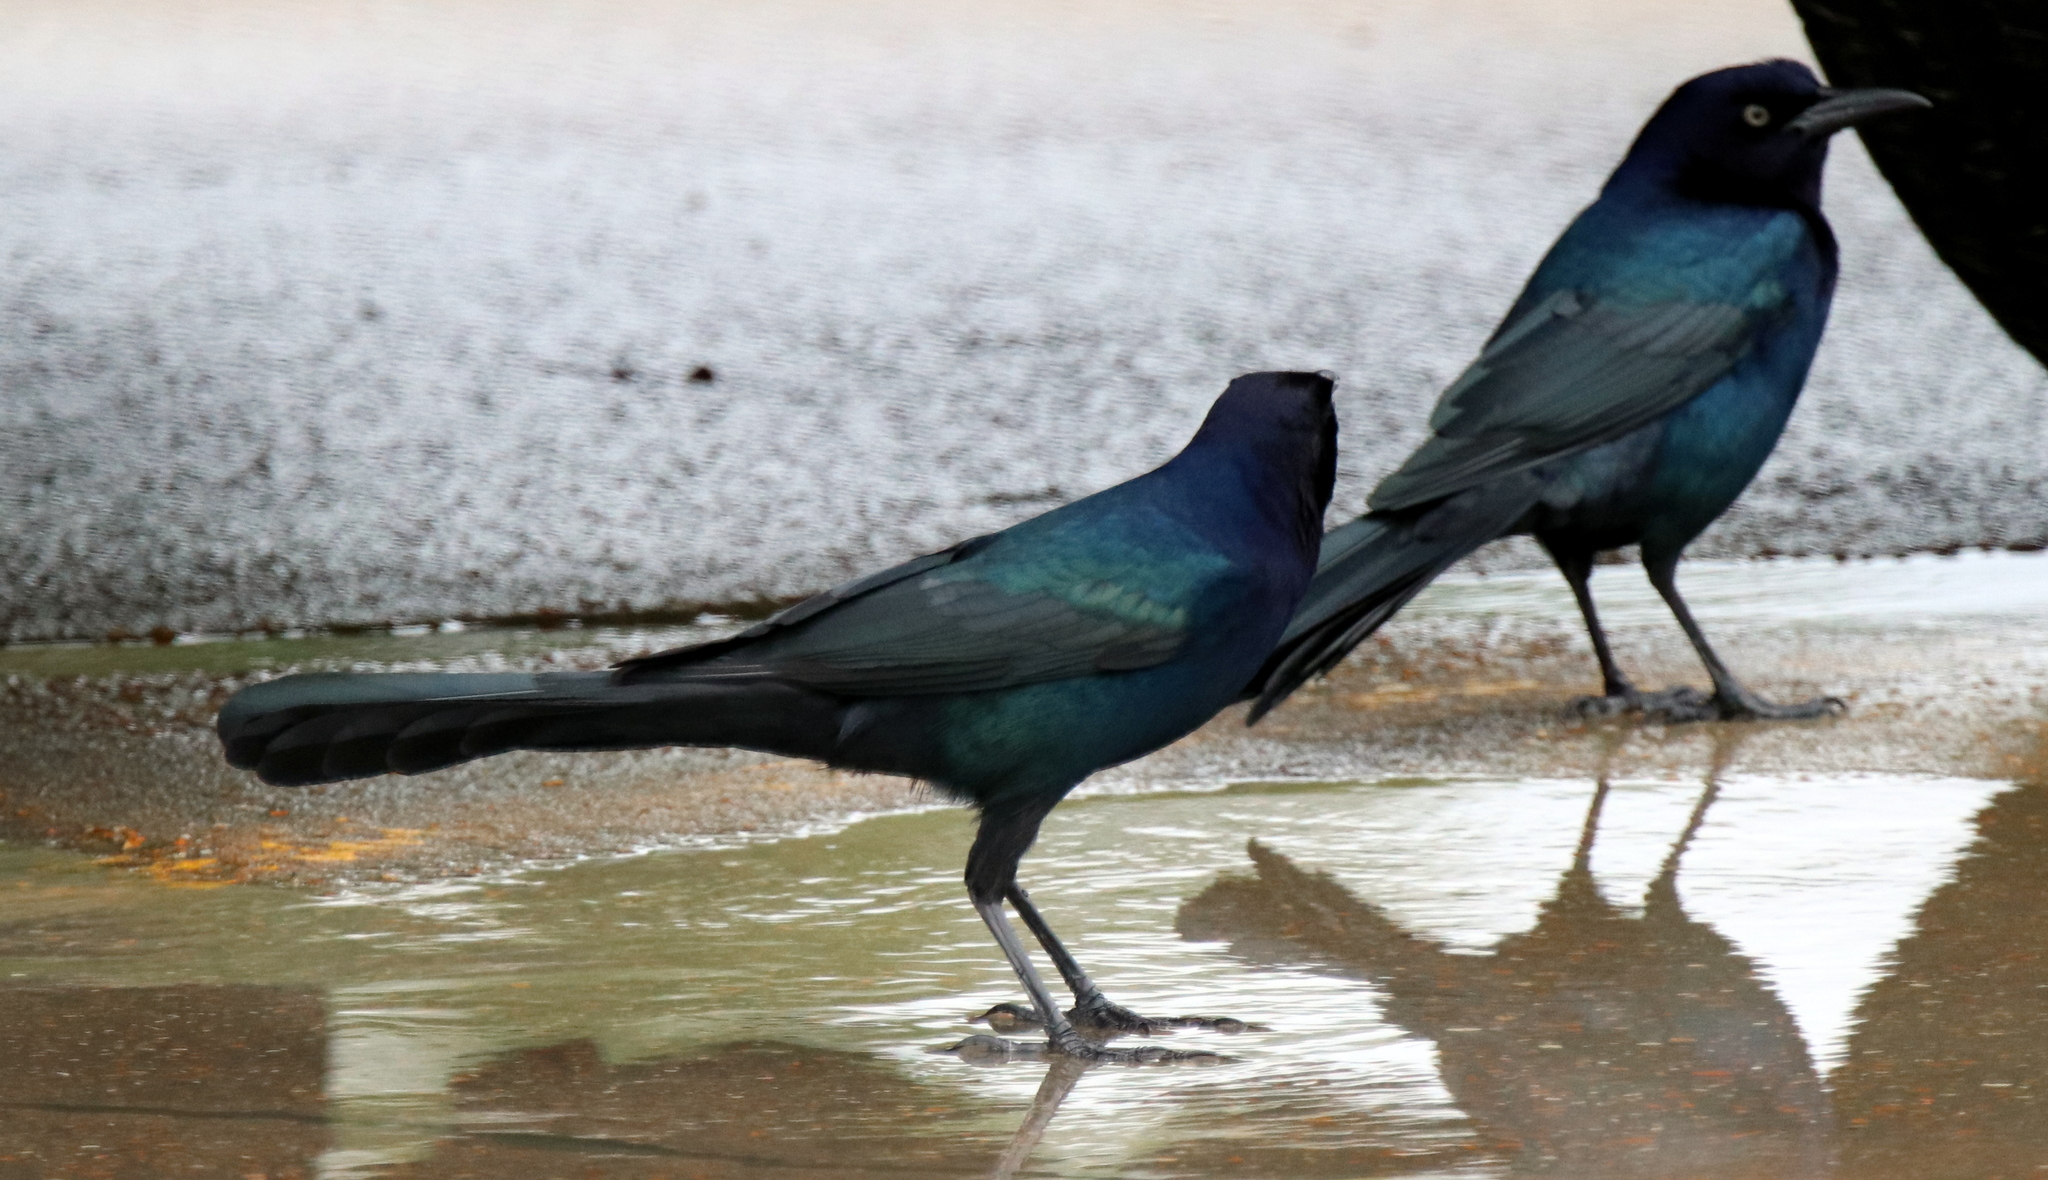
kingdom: Animalia
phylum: Chordata
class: Aves
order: Passeriformes
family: Icteridae
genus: Quiscalus
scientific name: Quiscalus major
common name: Boat-tailed grackle
